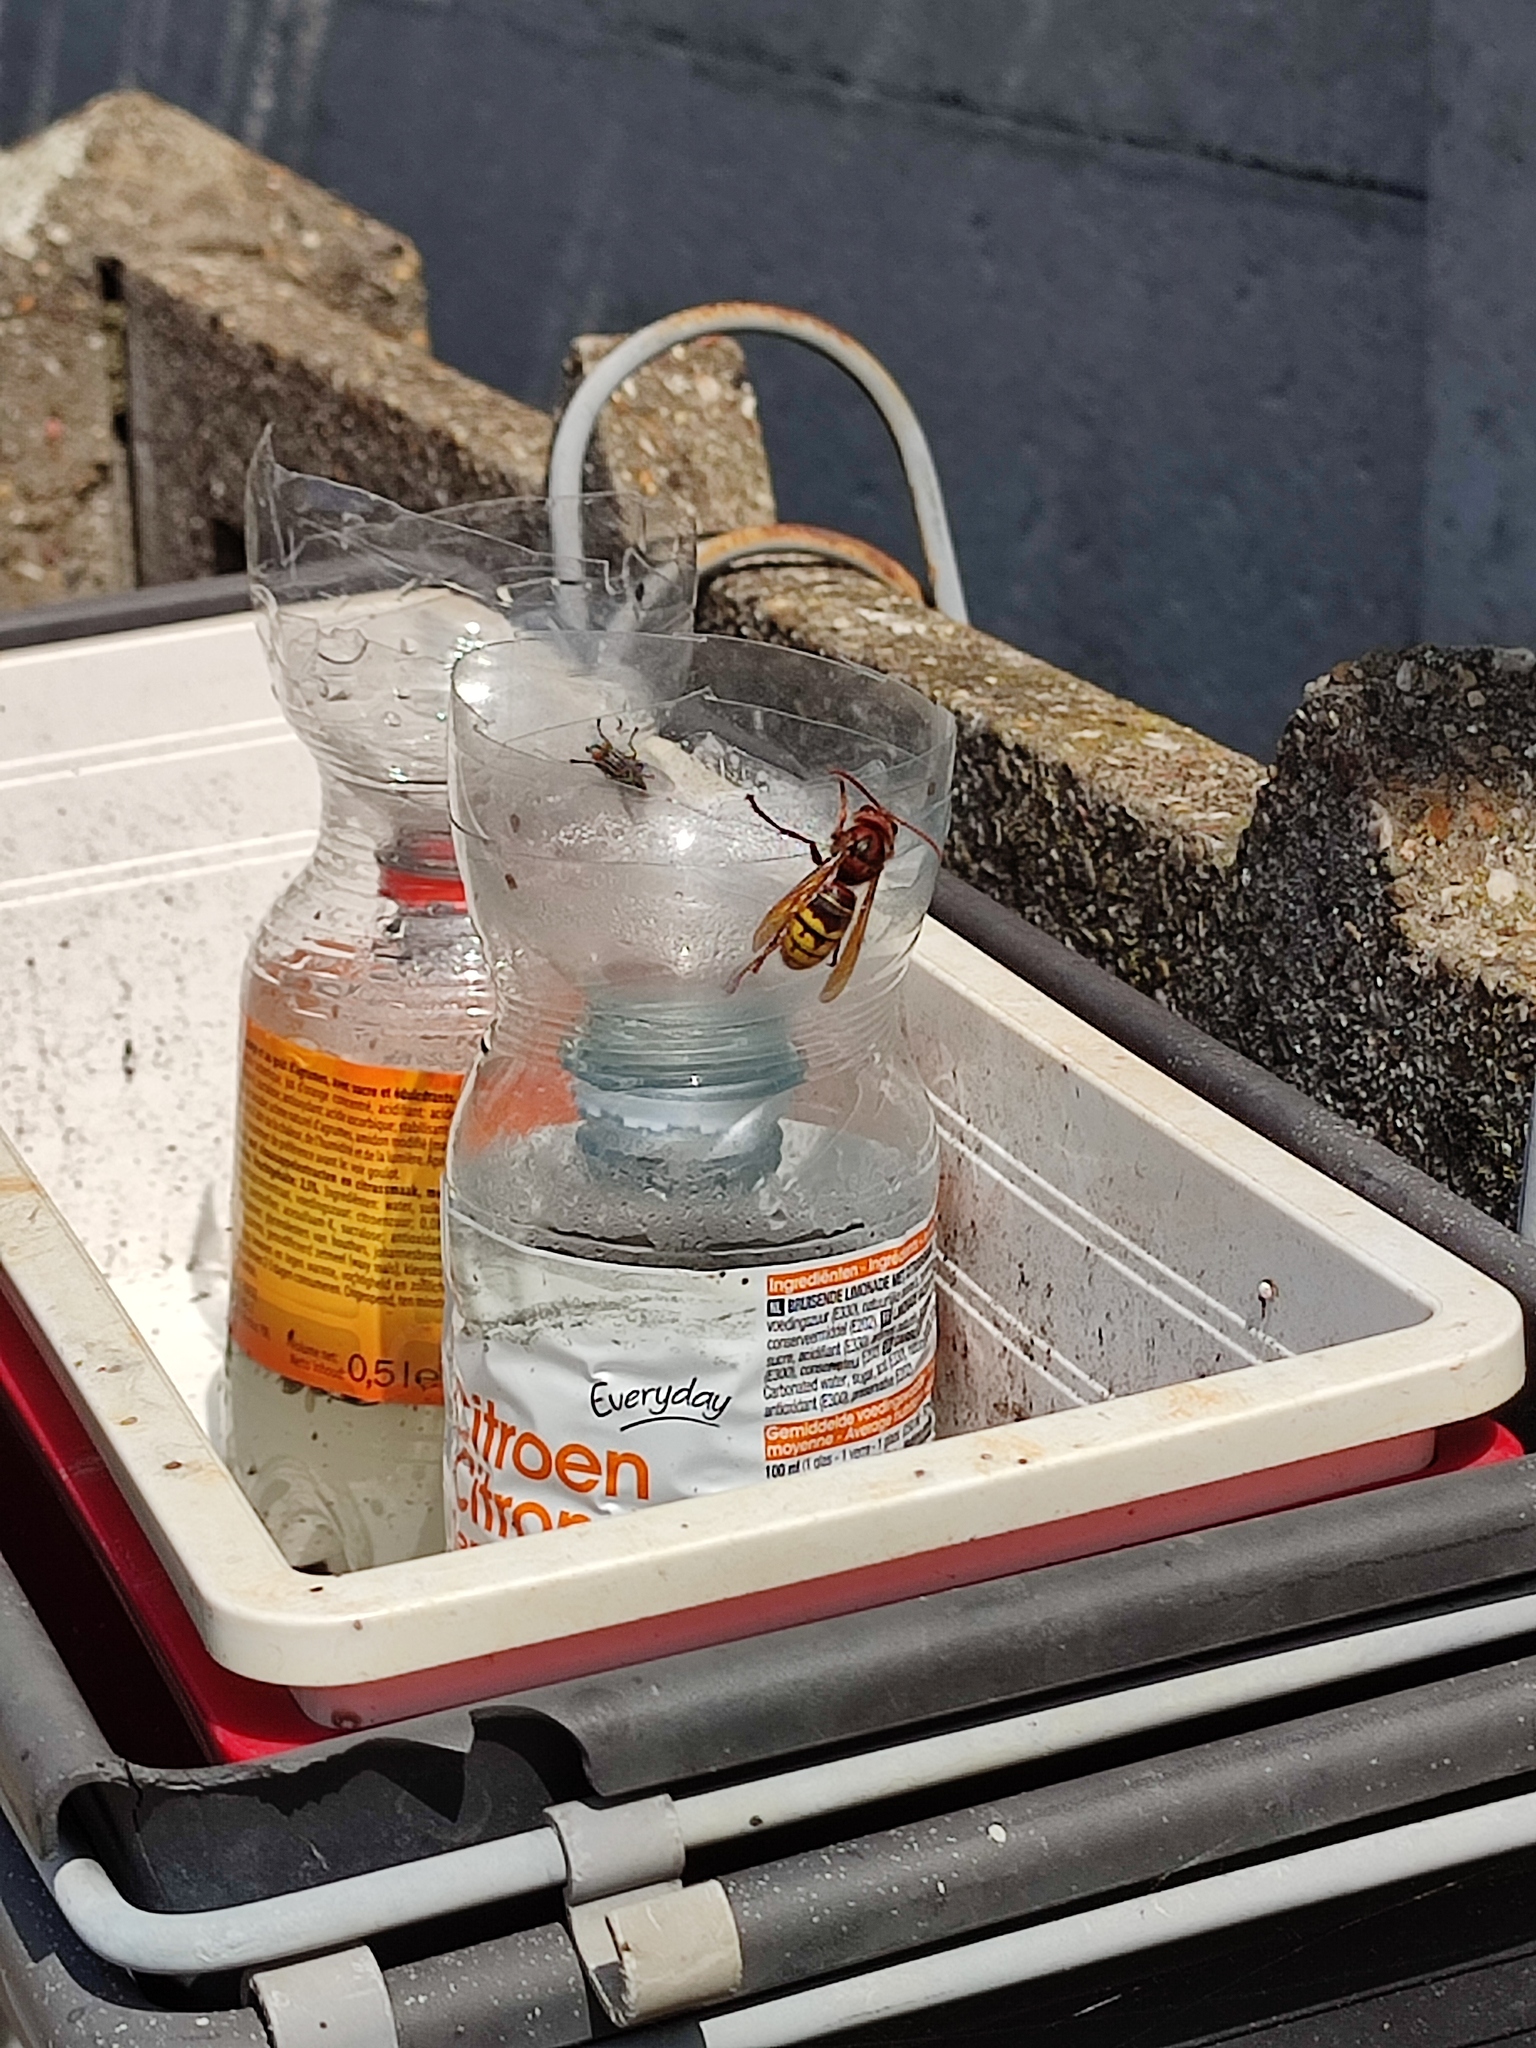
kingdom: Animalia
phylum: Arthropoda
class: Insecta
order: Hymenoptera
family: Vespidae
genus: Vespa
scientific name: Vespa crabro
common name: Hornet
